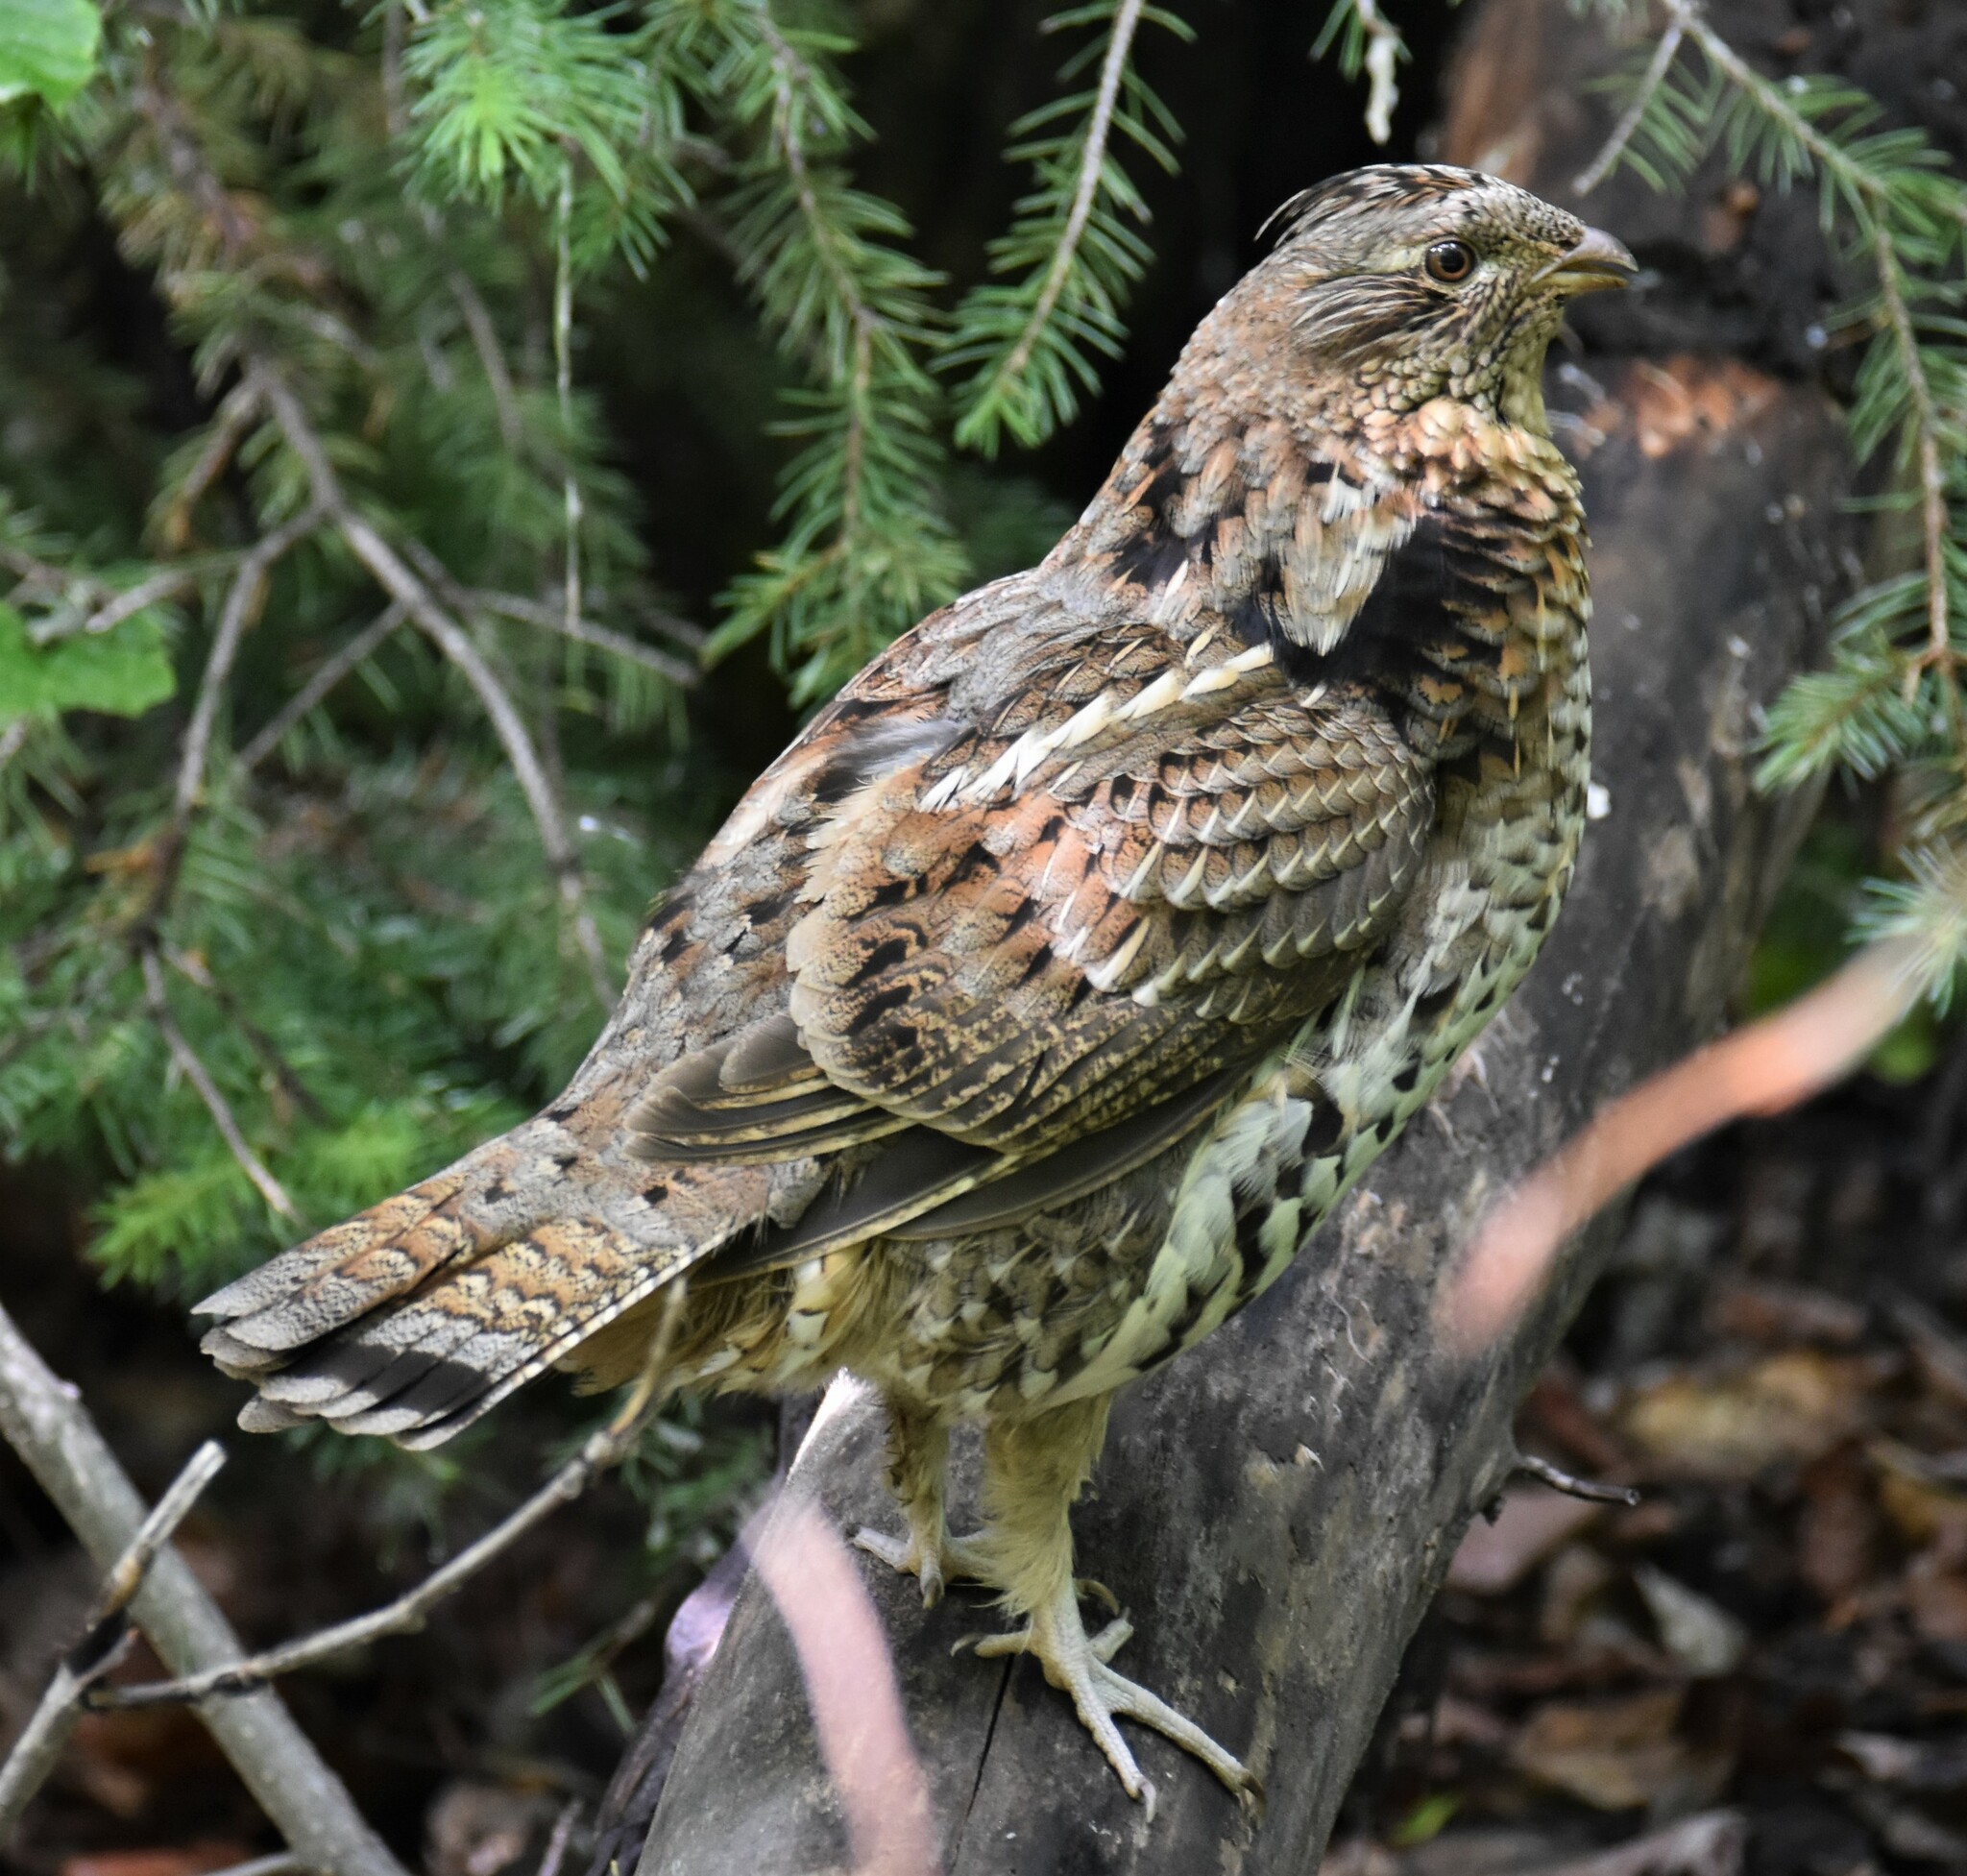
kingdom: Animalia
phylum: Chordata
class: Aves
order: Galliformes
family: Phasianidae
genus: Bonasa
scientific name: Bonasa umbellus
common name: Ruffed grouse
